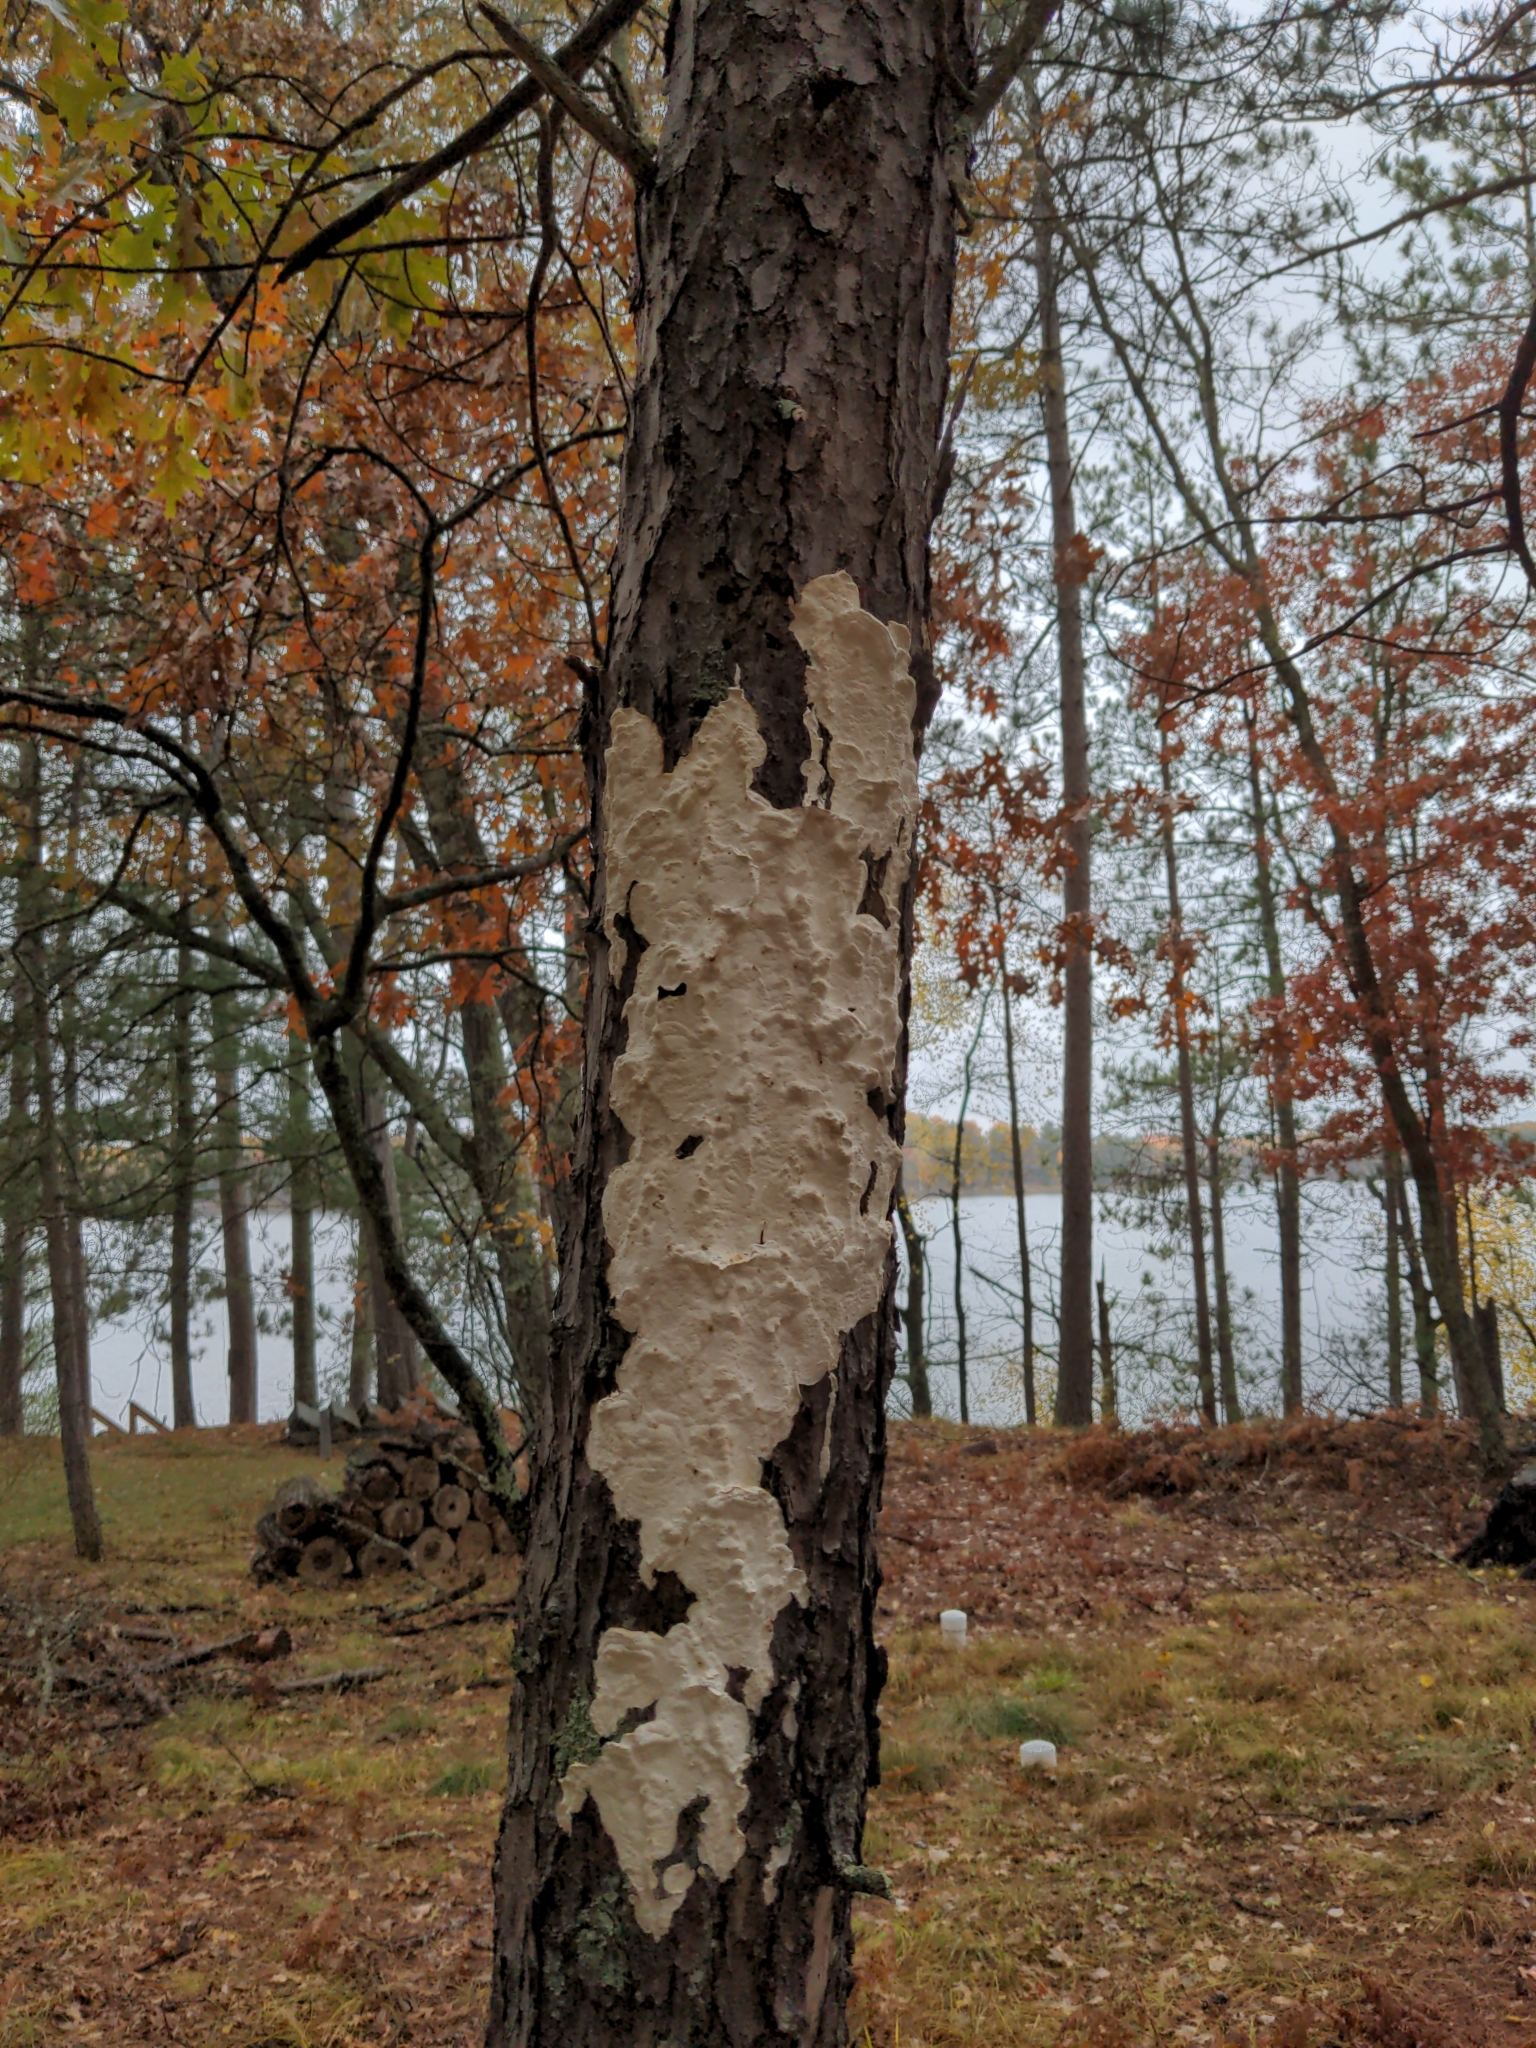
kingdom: Fungi
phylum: Basidiomycota
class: Agaricomycetes
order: Polyporales
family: Irpicaceae
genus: Irpex
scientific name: Irpex lacteus
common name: Milk-white toothed polypore
